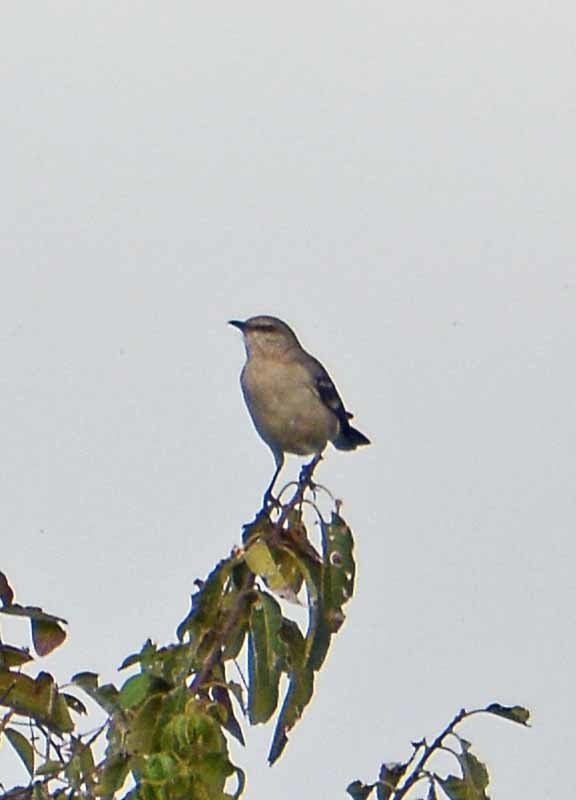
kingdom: Animalia
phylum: Chordata
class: Aves
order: Passeriformes
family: Mimidae
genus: Mimus
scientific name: Mimus polyglottos
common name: Northern mockingbird
